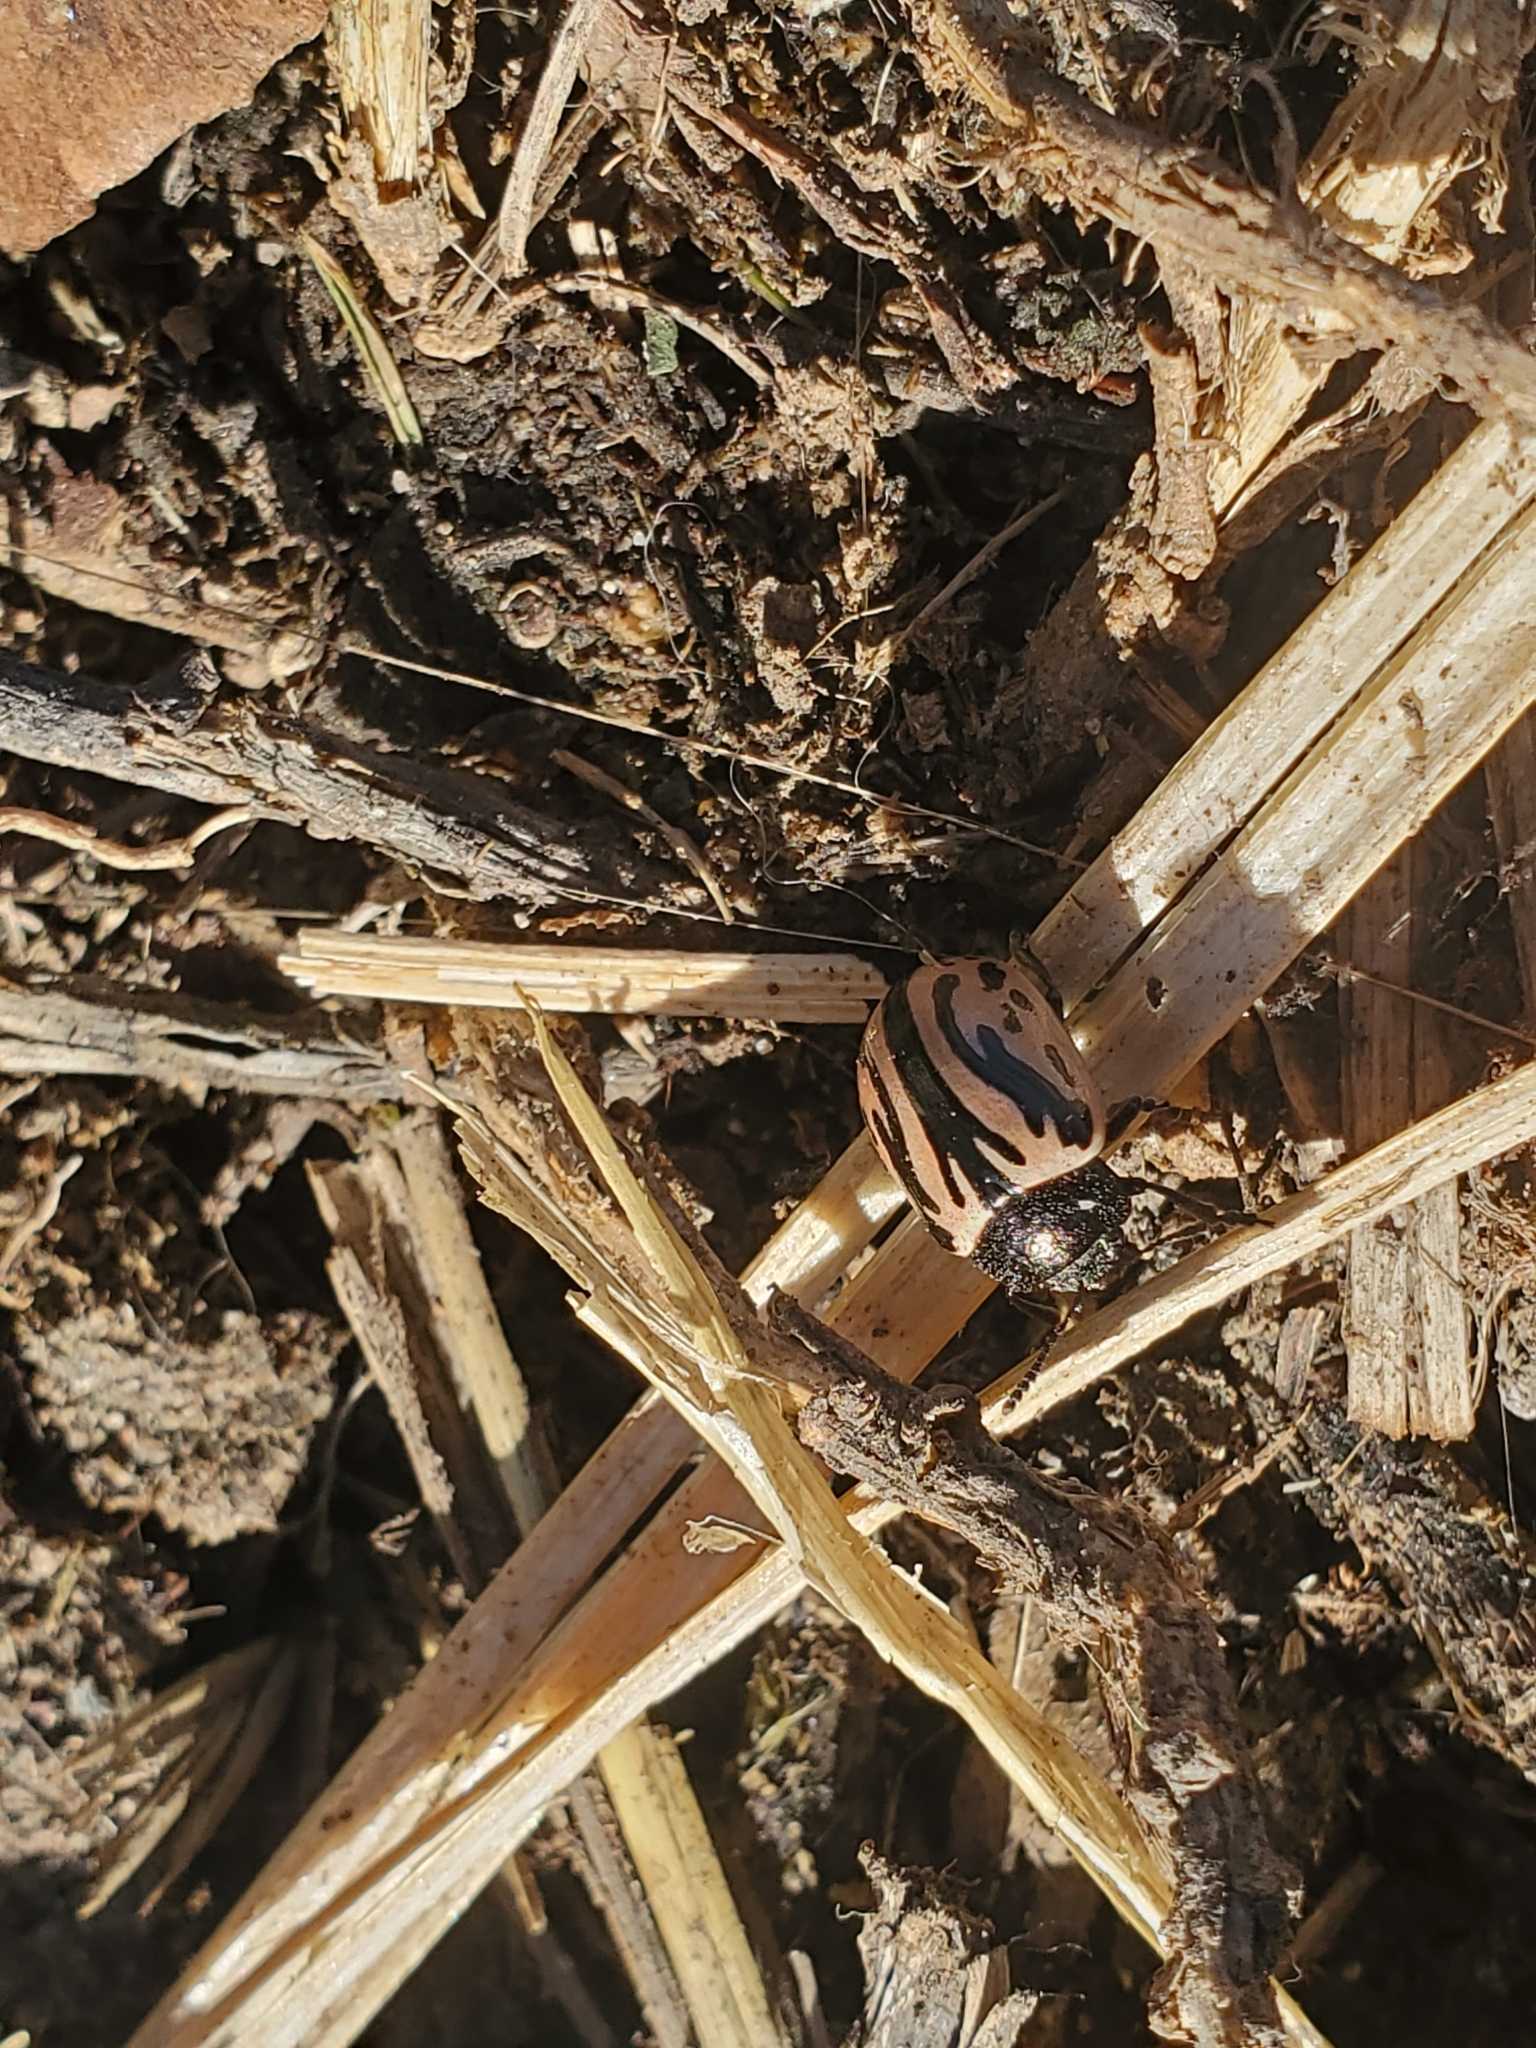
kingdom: Animalia
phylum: Arthropoda
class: Insecta
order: Coleoptera
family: Chrysomelidae
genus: Calligrapha
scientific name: Calligrapha sigmoidea
